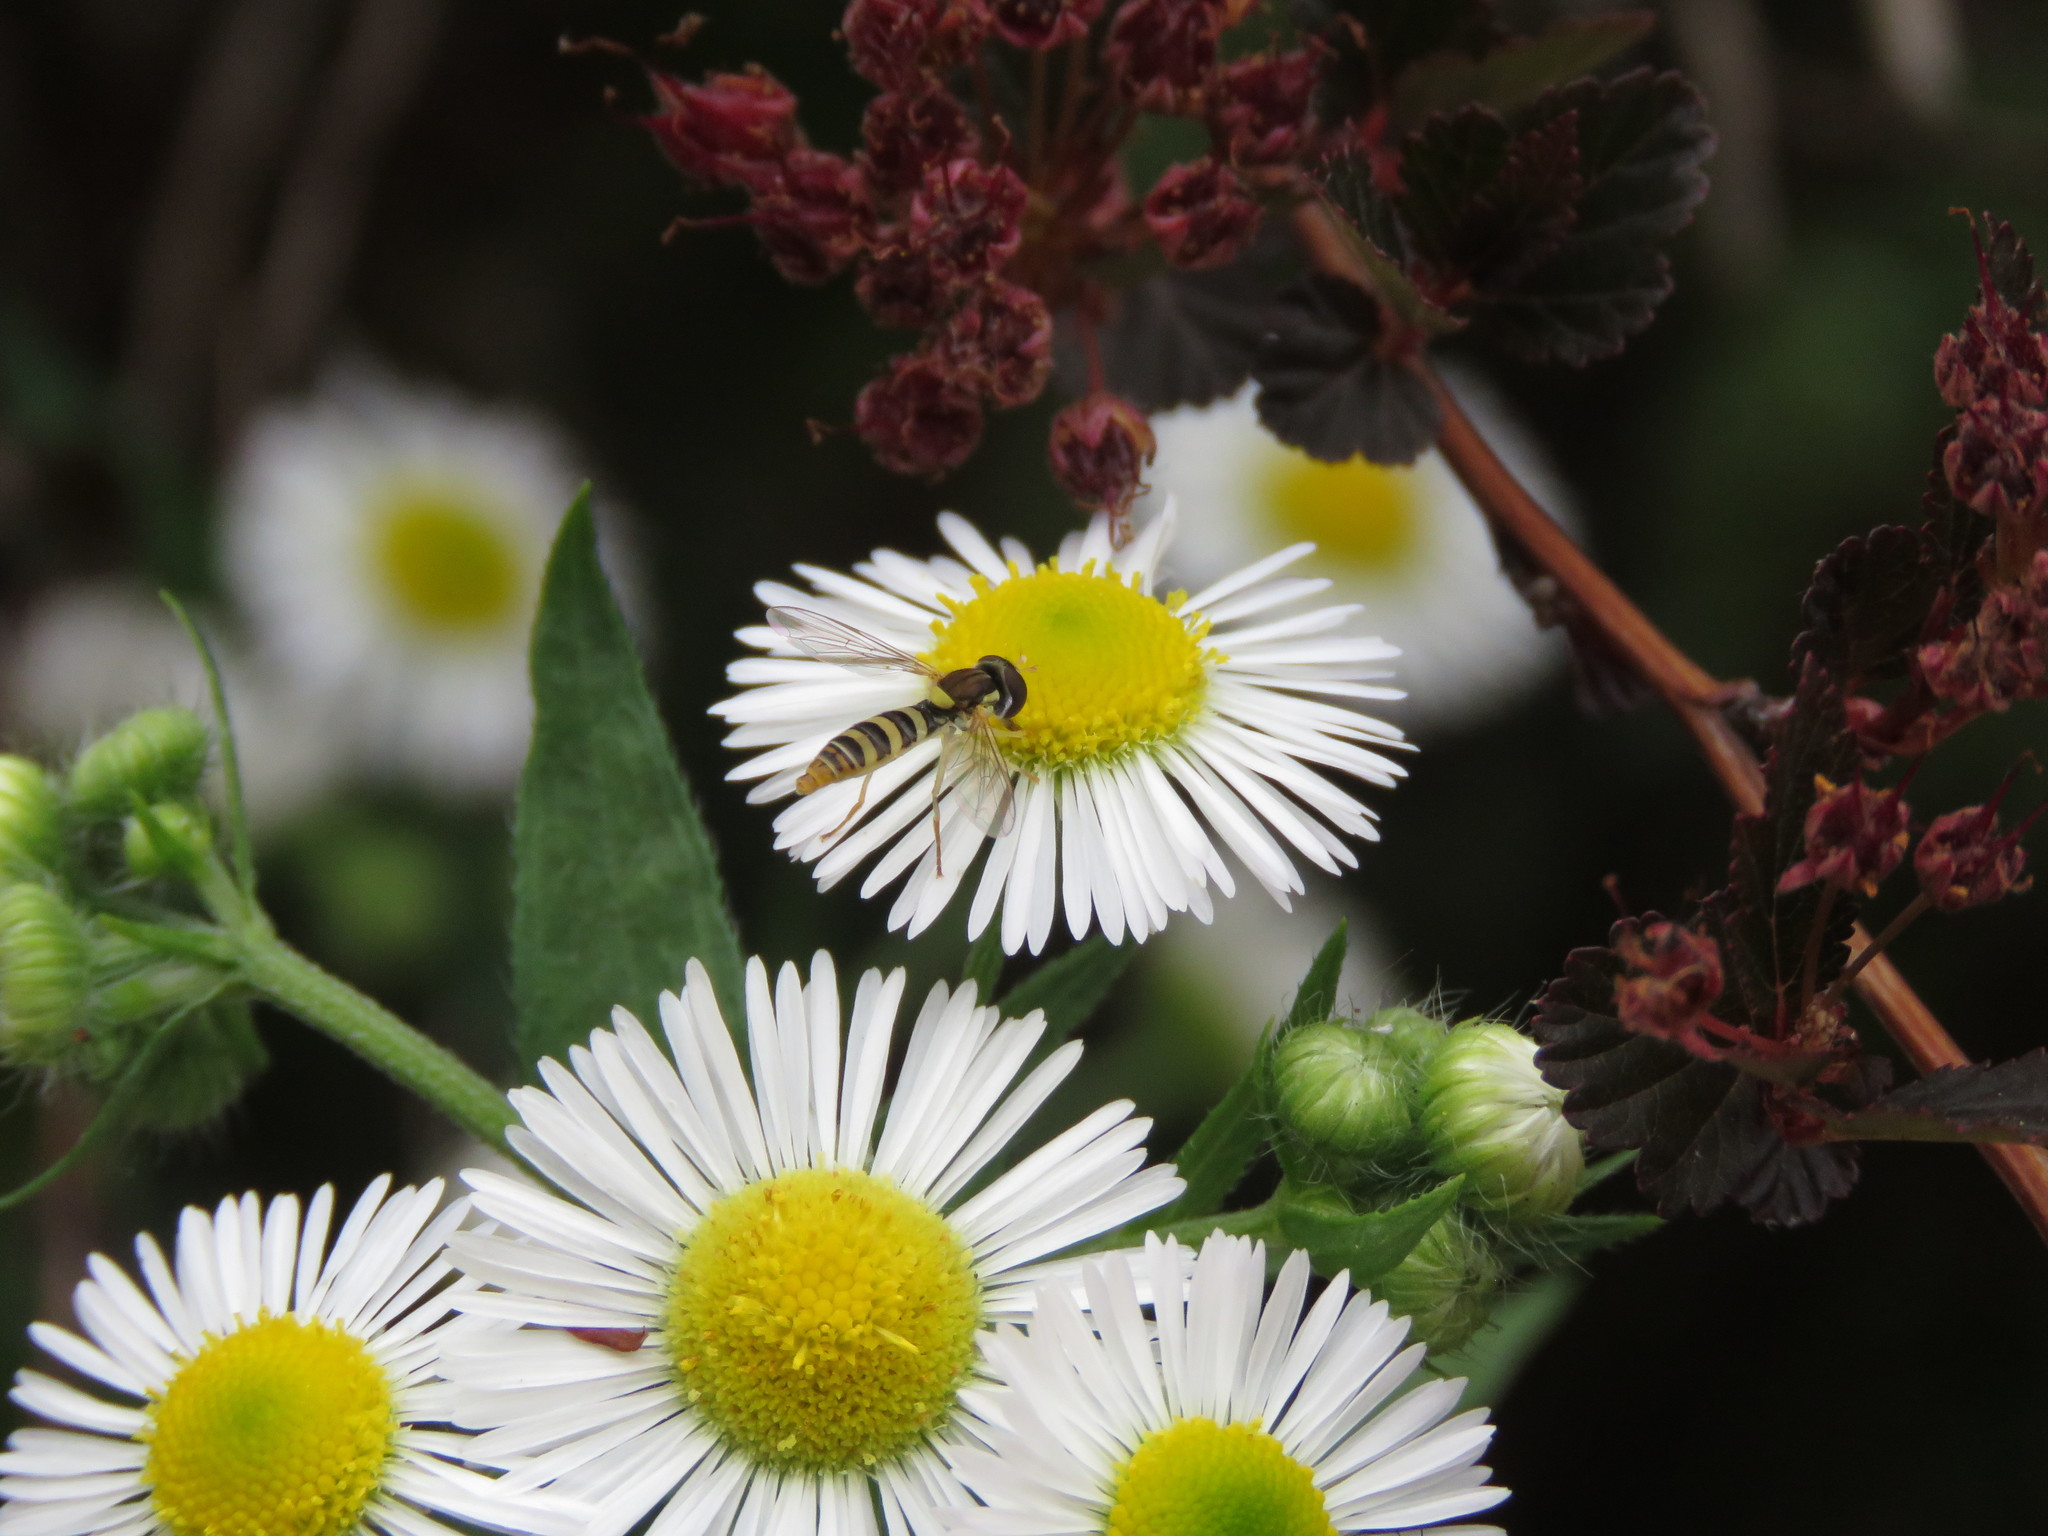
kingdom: Animalia
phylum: Arthropoda
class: Insecta
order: Diptera
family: Syrphidae
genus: Sphaerophoria
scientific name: Sphaerophoria contigua
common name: Tufted globetail
